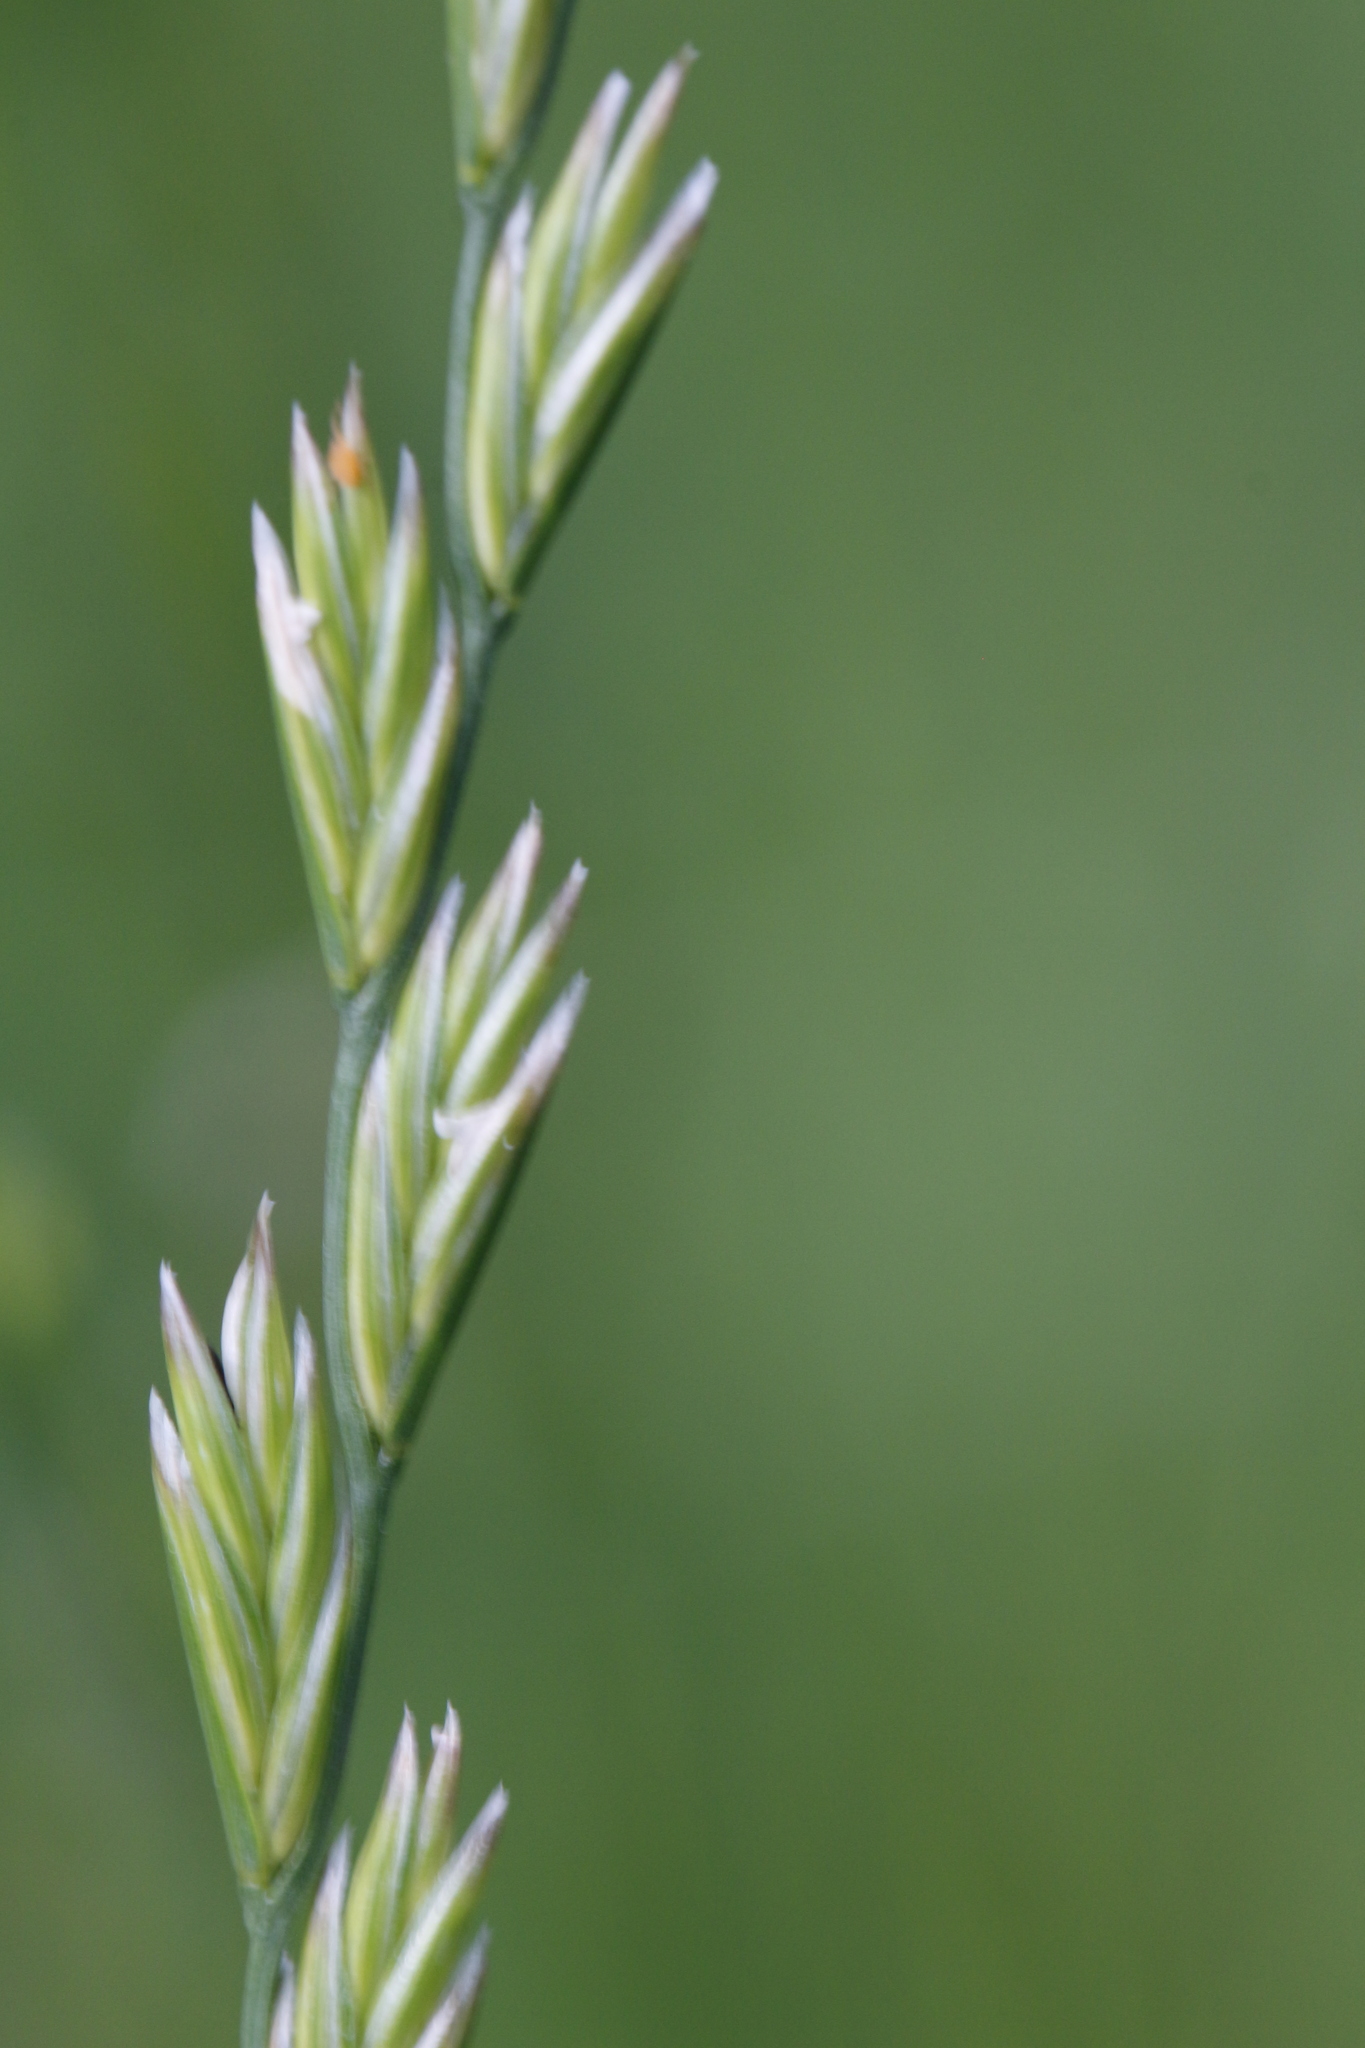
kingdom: Plantae
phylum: Tracheophyta
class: Liliopsida
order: Poales
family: Poaceae
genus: Lolium
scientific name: Lolium perenne
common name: Perennial ryegrass
